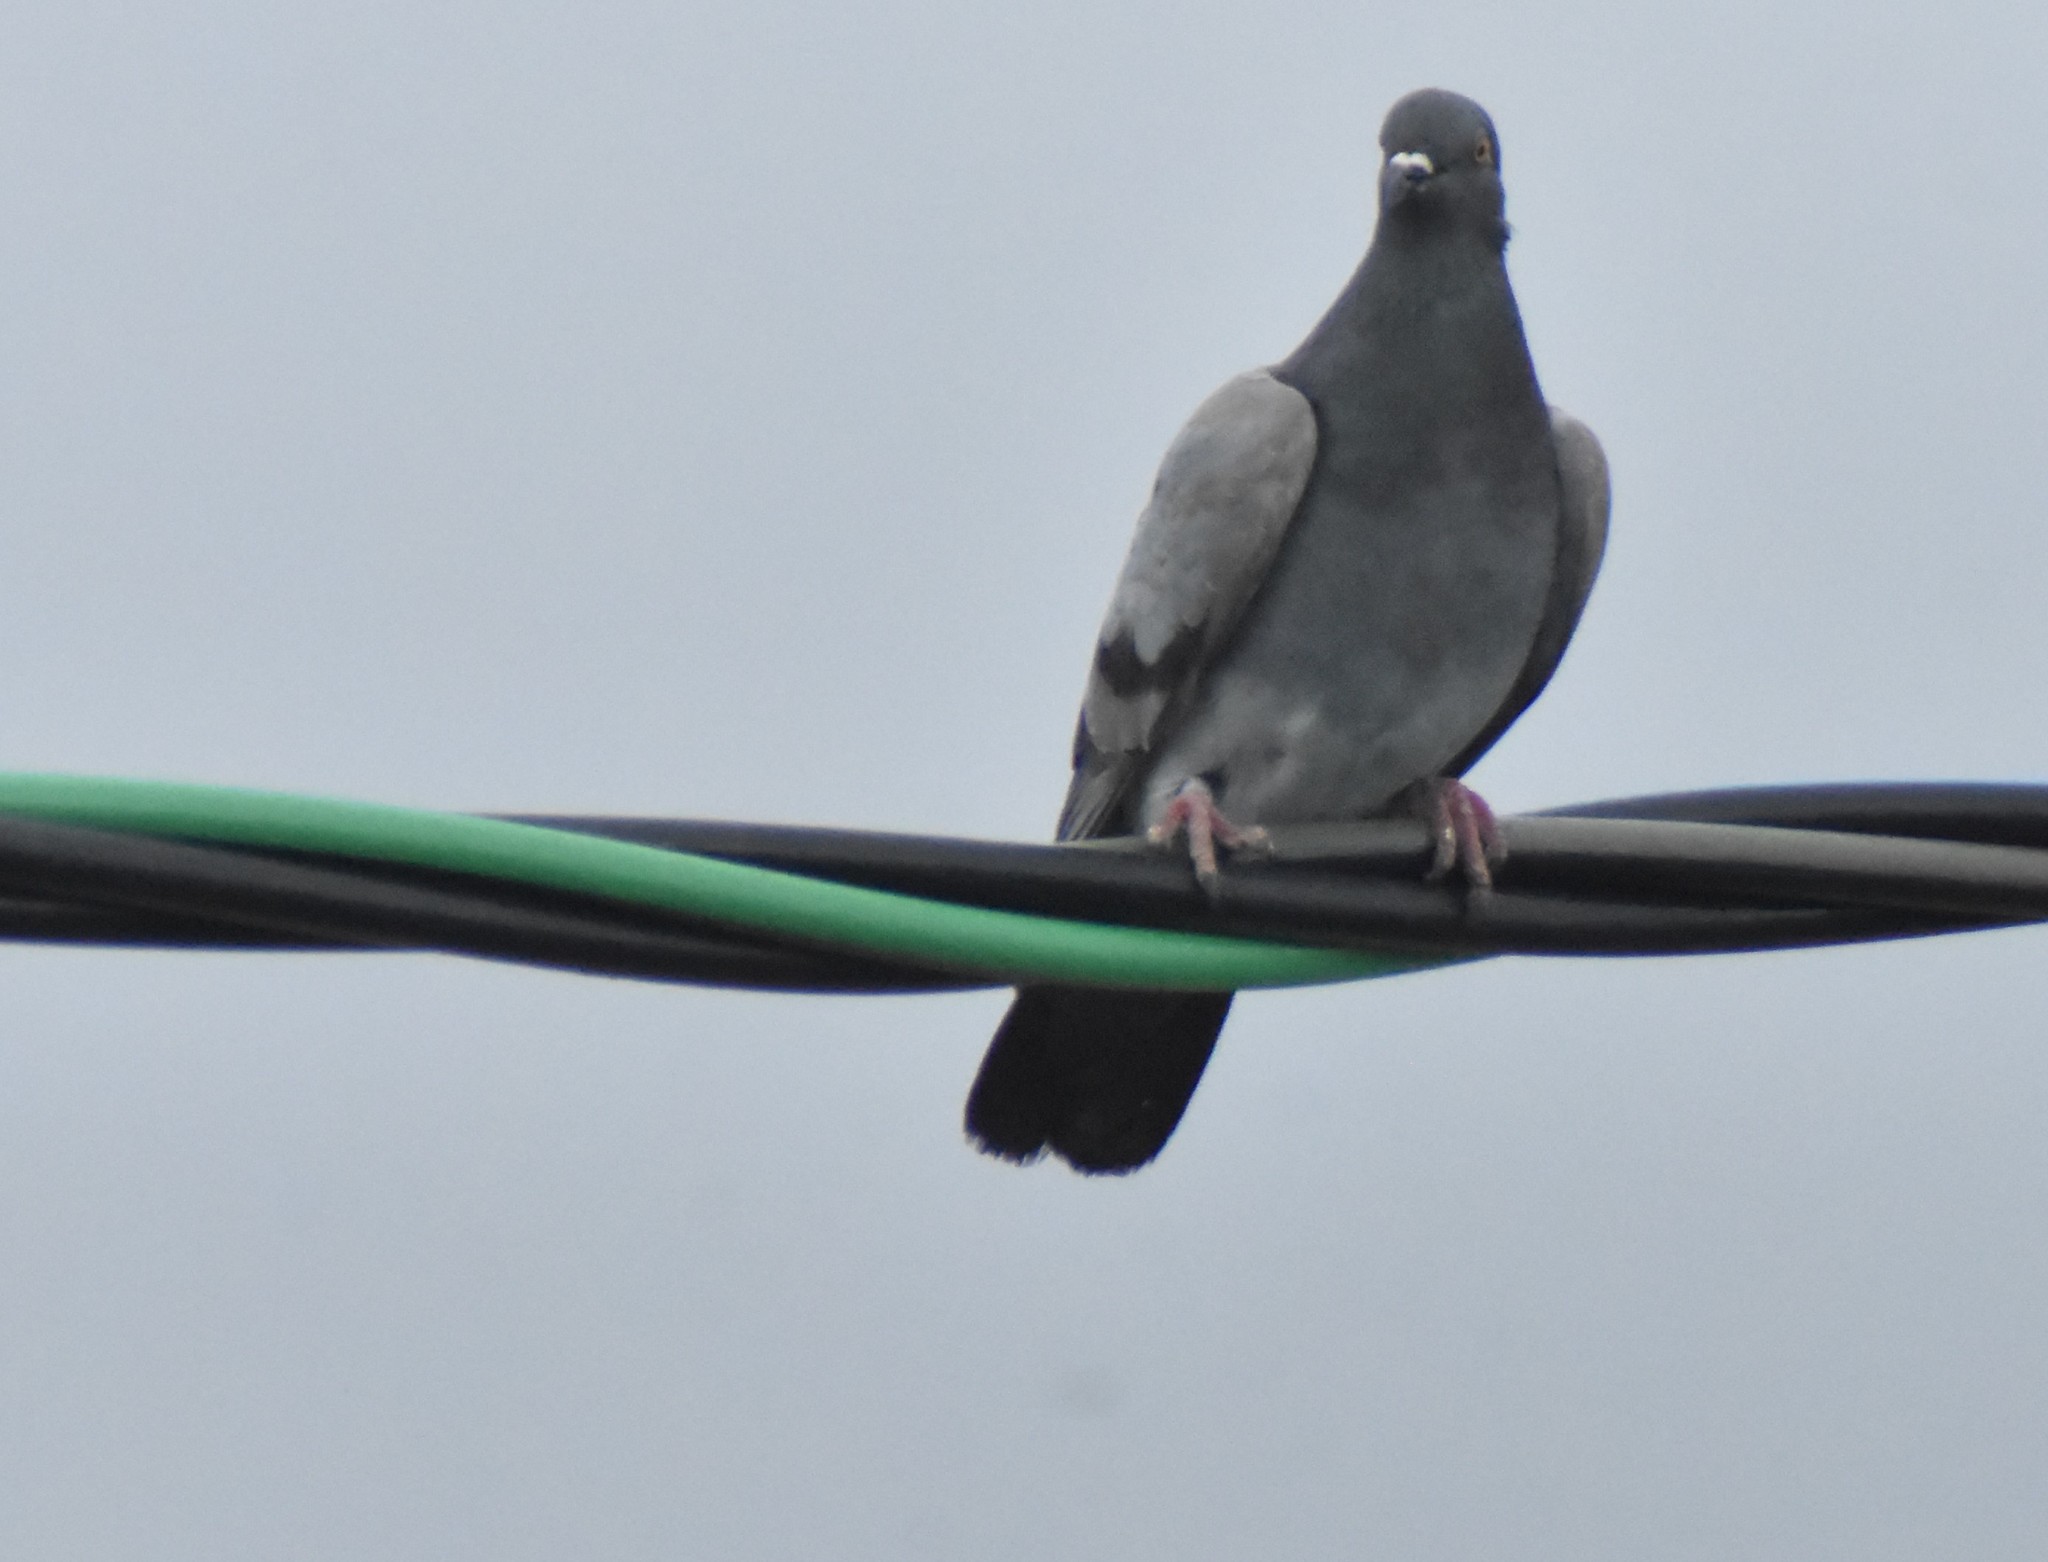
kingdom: Animalia
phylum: Chordata
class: Aves
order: Columbiformes
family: Columbidae
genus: Columba
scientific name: Columba livia
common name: Rock pigeon
